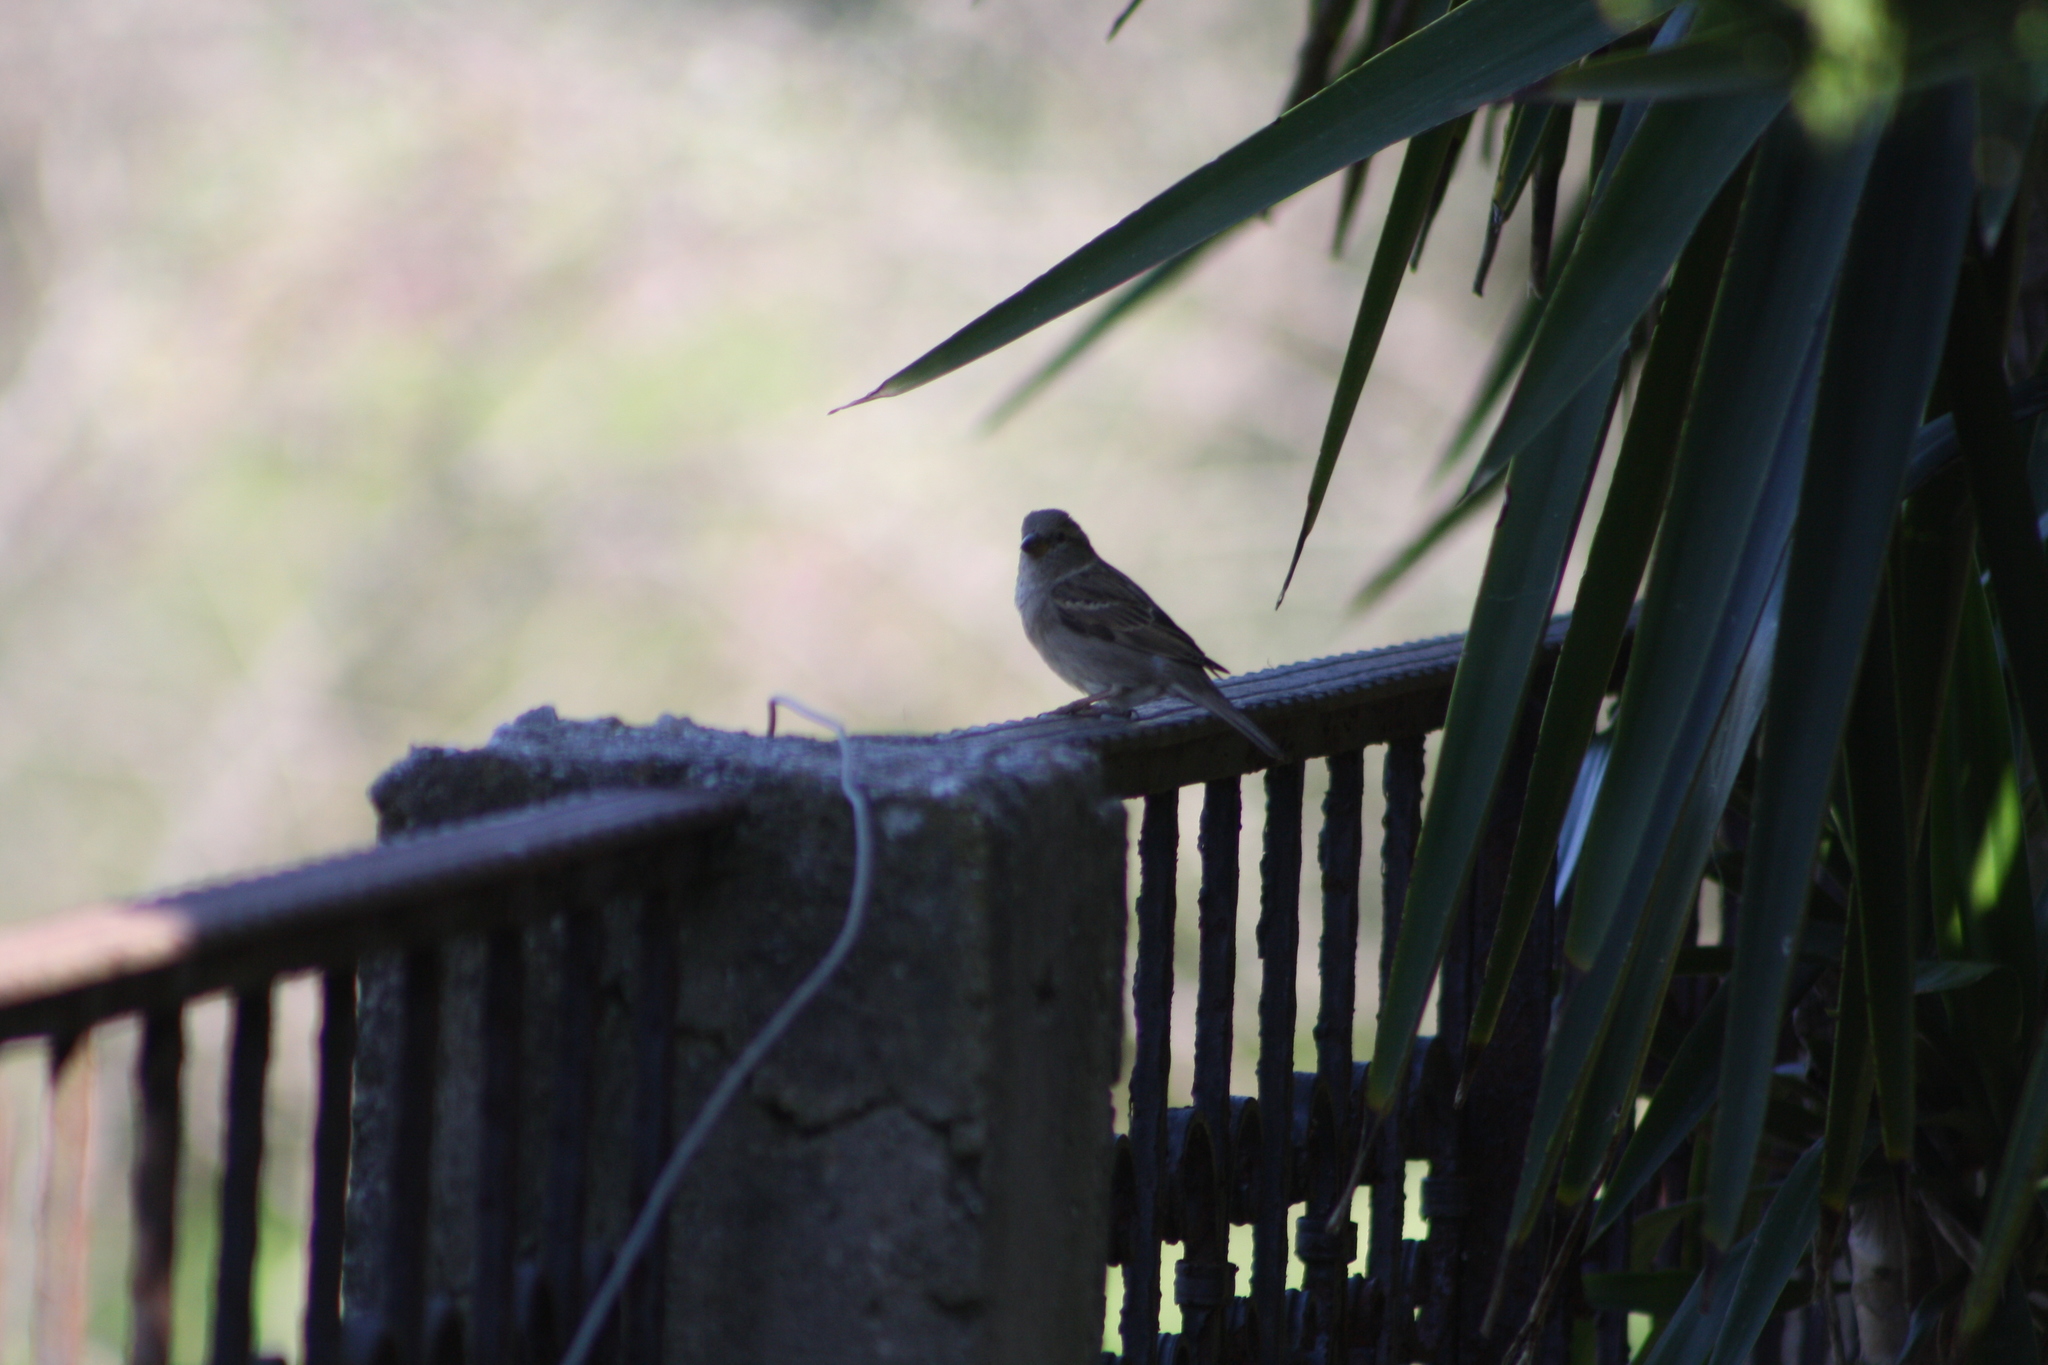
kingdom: Animalia
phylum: Chordata
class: Aves
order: Passeriformes
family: Passeridae
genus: Passer
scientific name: Passer domesticus
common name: House sparrow
